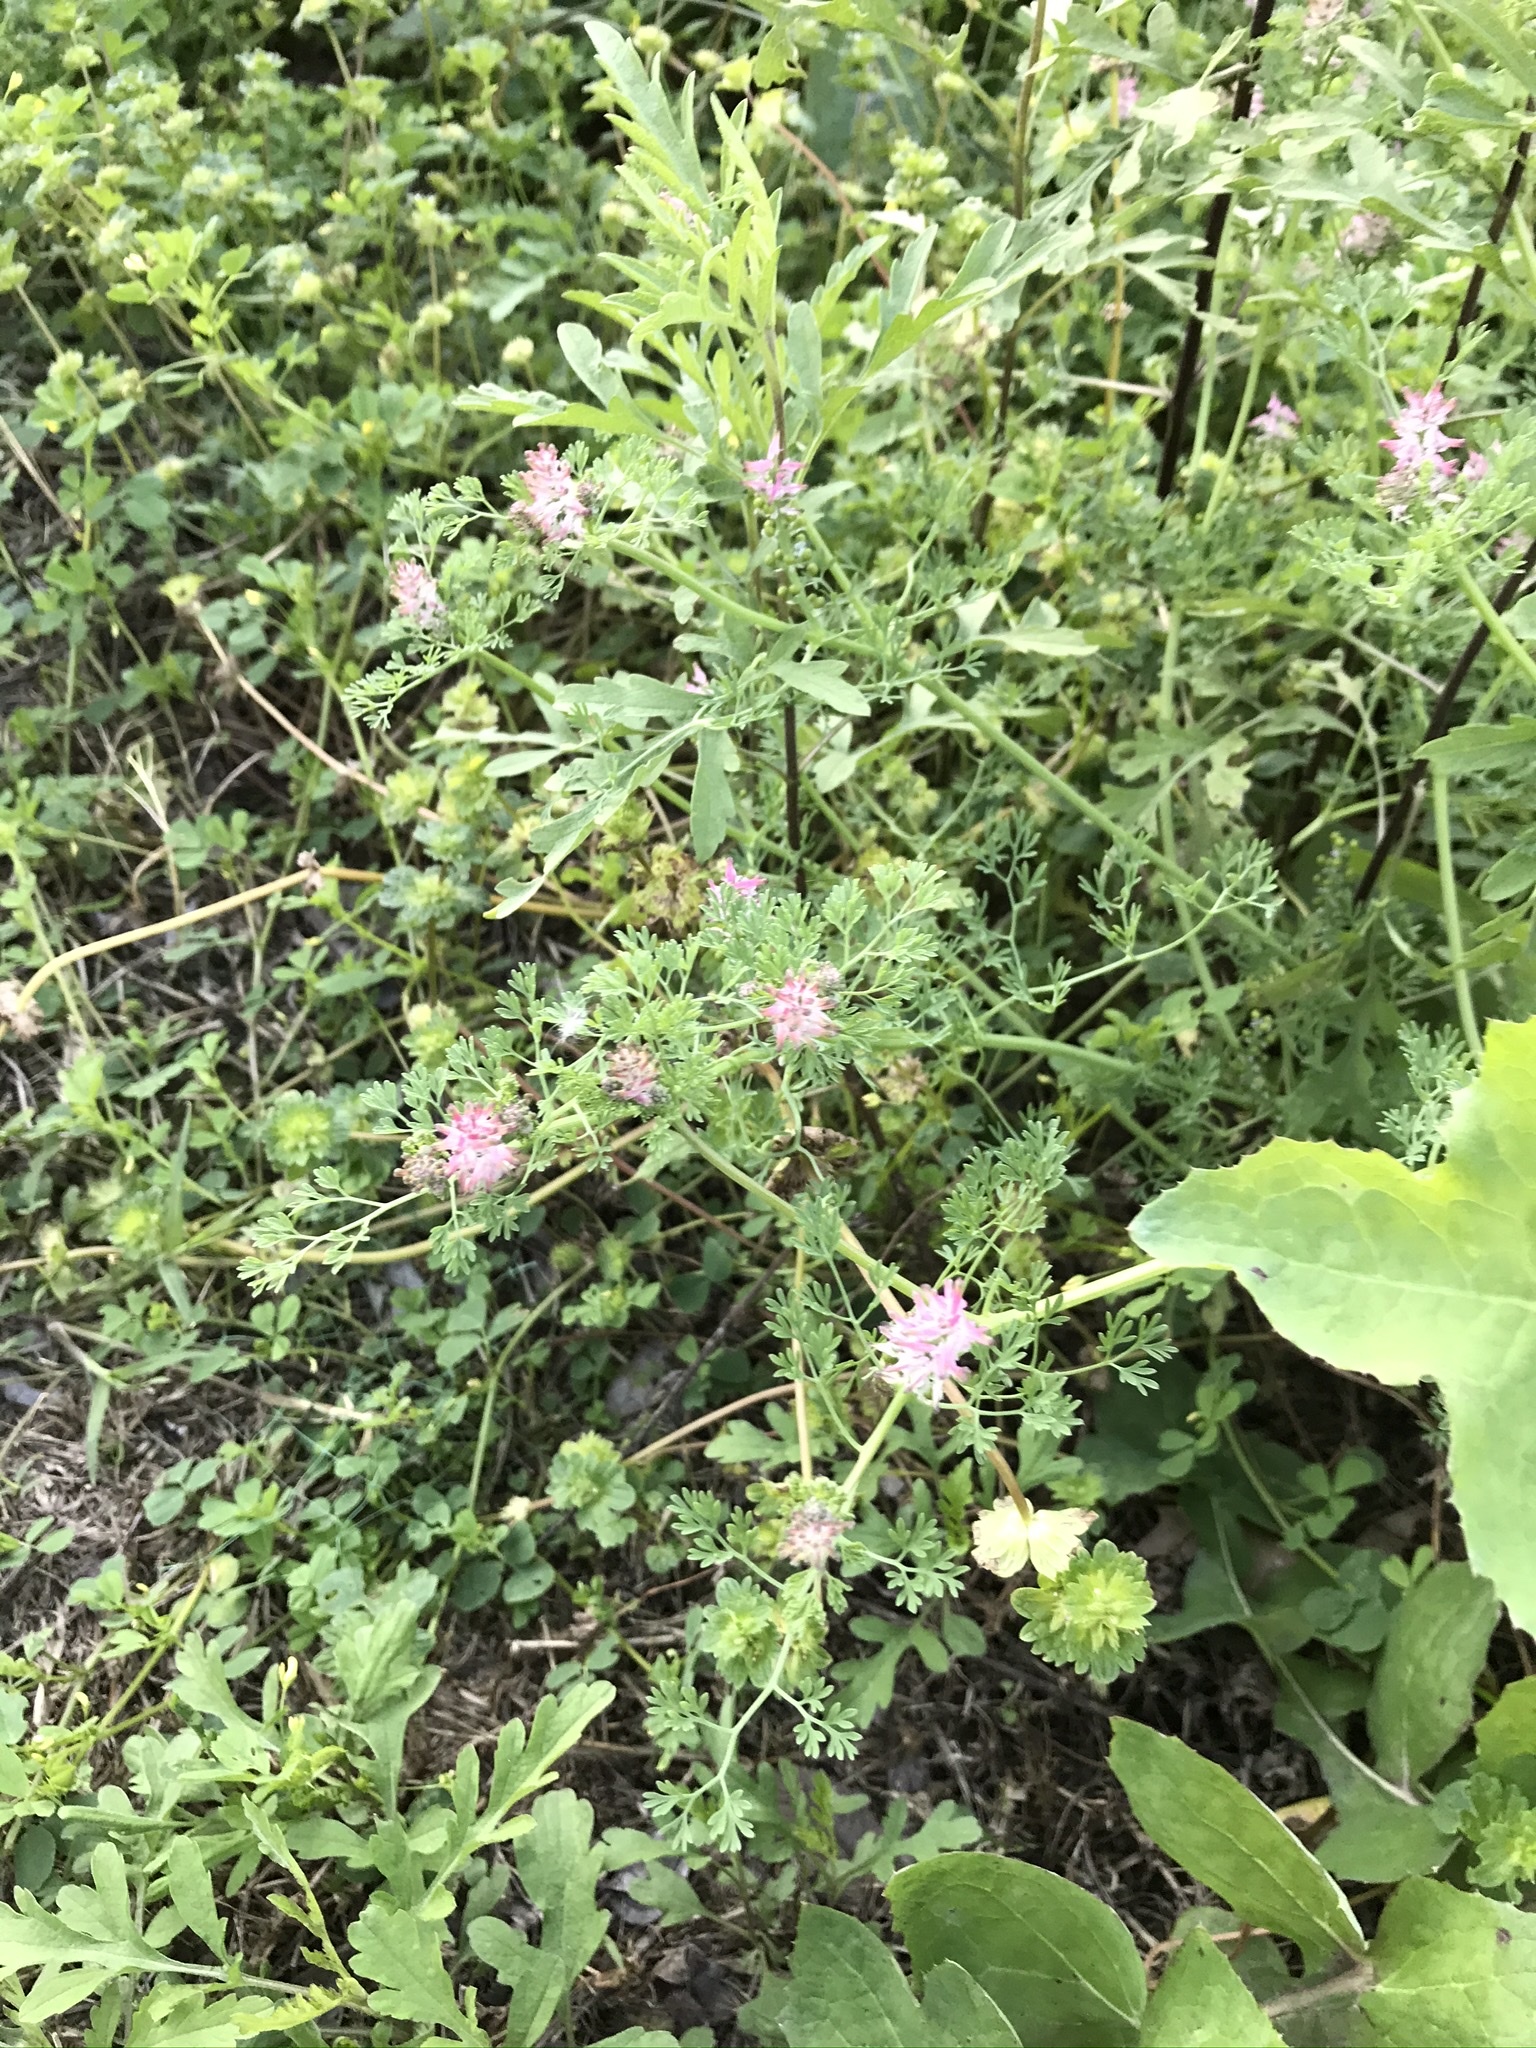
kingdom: Plantae
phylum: Tracheophyta
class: Magnoliopsida
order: Ranunculales
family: Papaveraceae
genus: Fumaria
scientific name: Fumaria densiflora
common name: Dense-flowered fumitory
